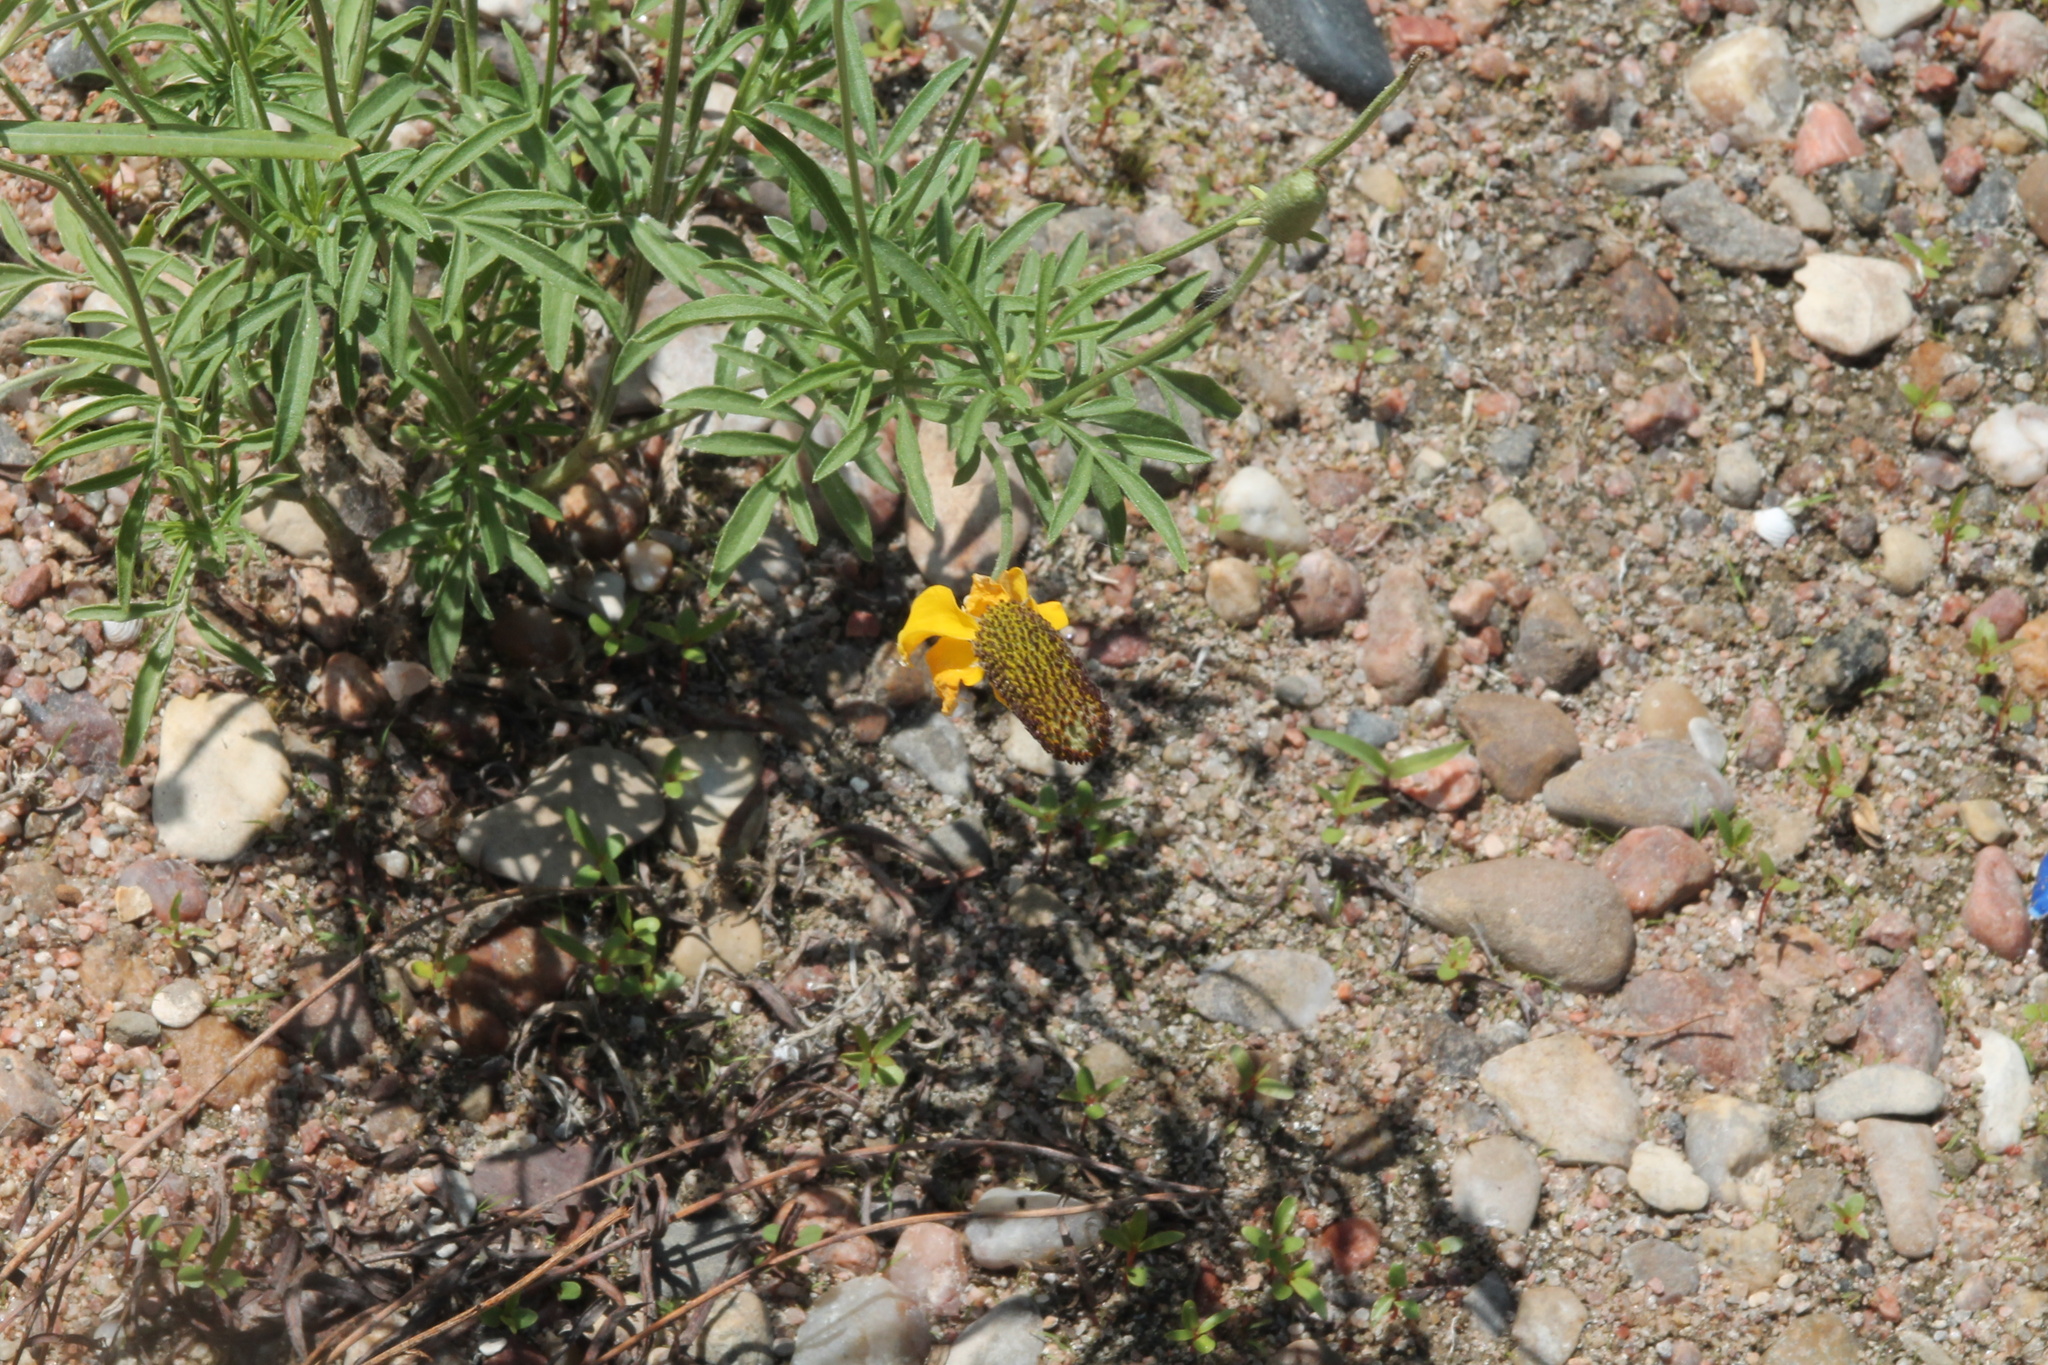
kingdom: Plantae
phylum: Tracheophyta
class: Magnoliopsida
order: Asterales
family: Asteraceae
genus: Ratibida
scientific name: Ratibida columnifera
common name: Prairie coneflower
